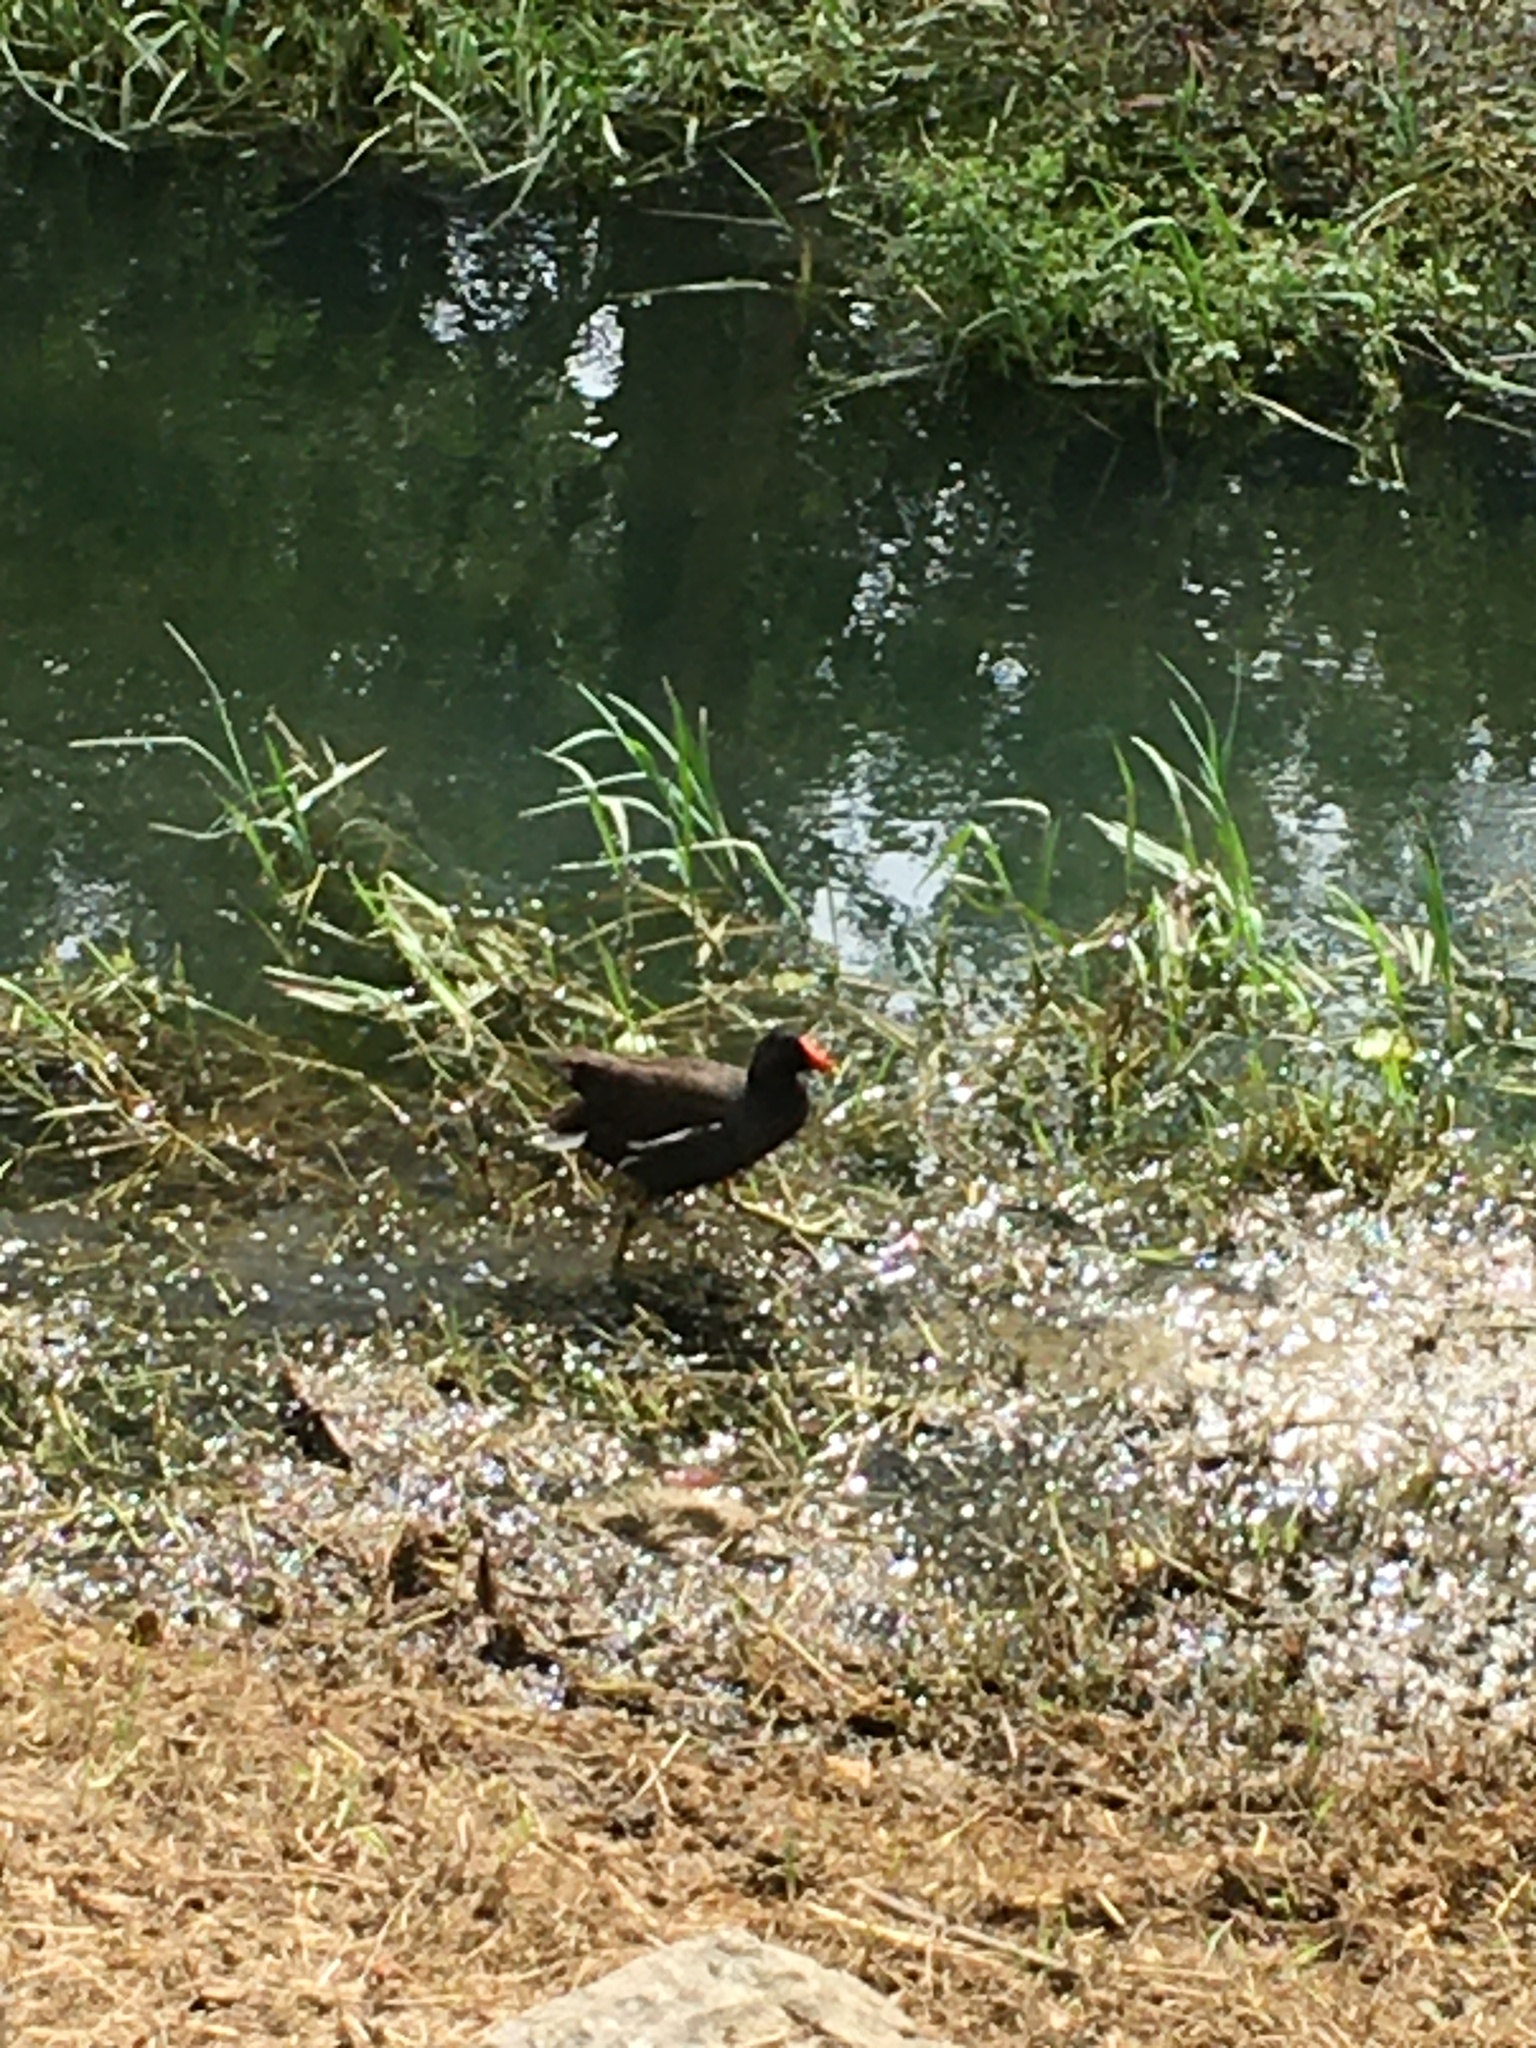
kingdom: Animalia
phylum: Chordata
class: Aves
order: Gruiformes
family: Rallidae
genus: Gallinula
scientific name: Gallinula chloropus
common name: Common moorhen
